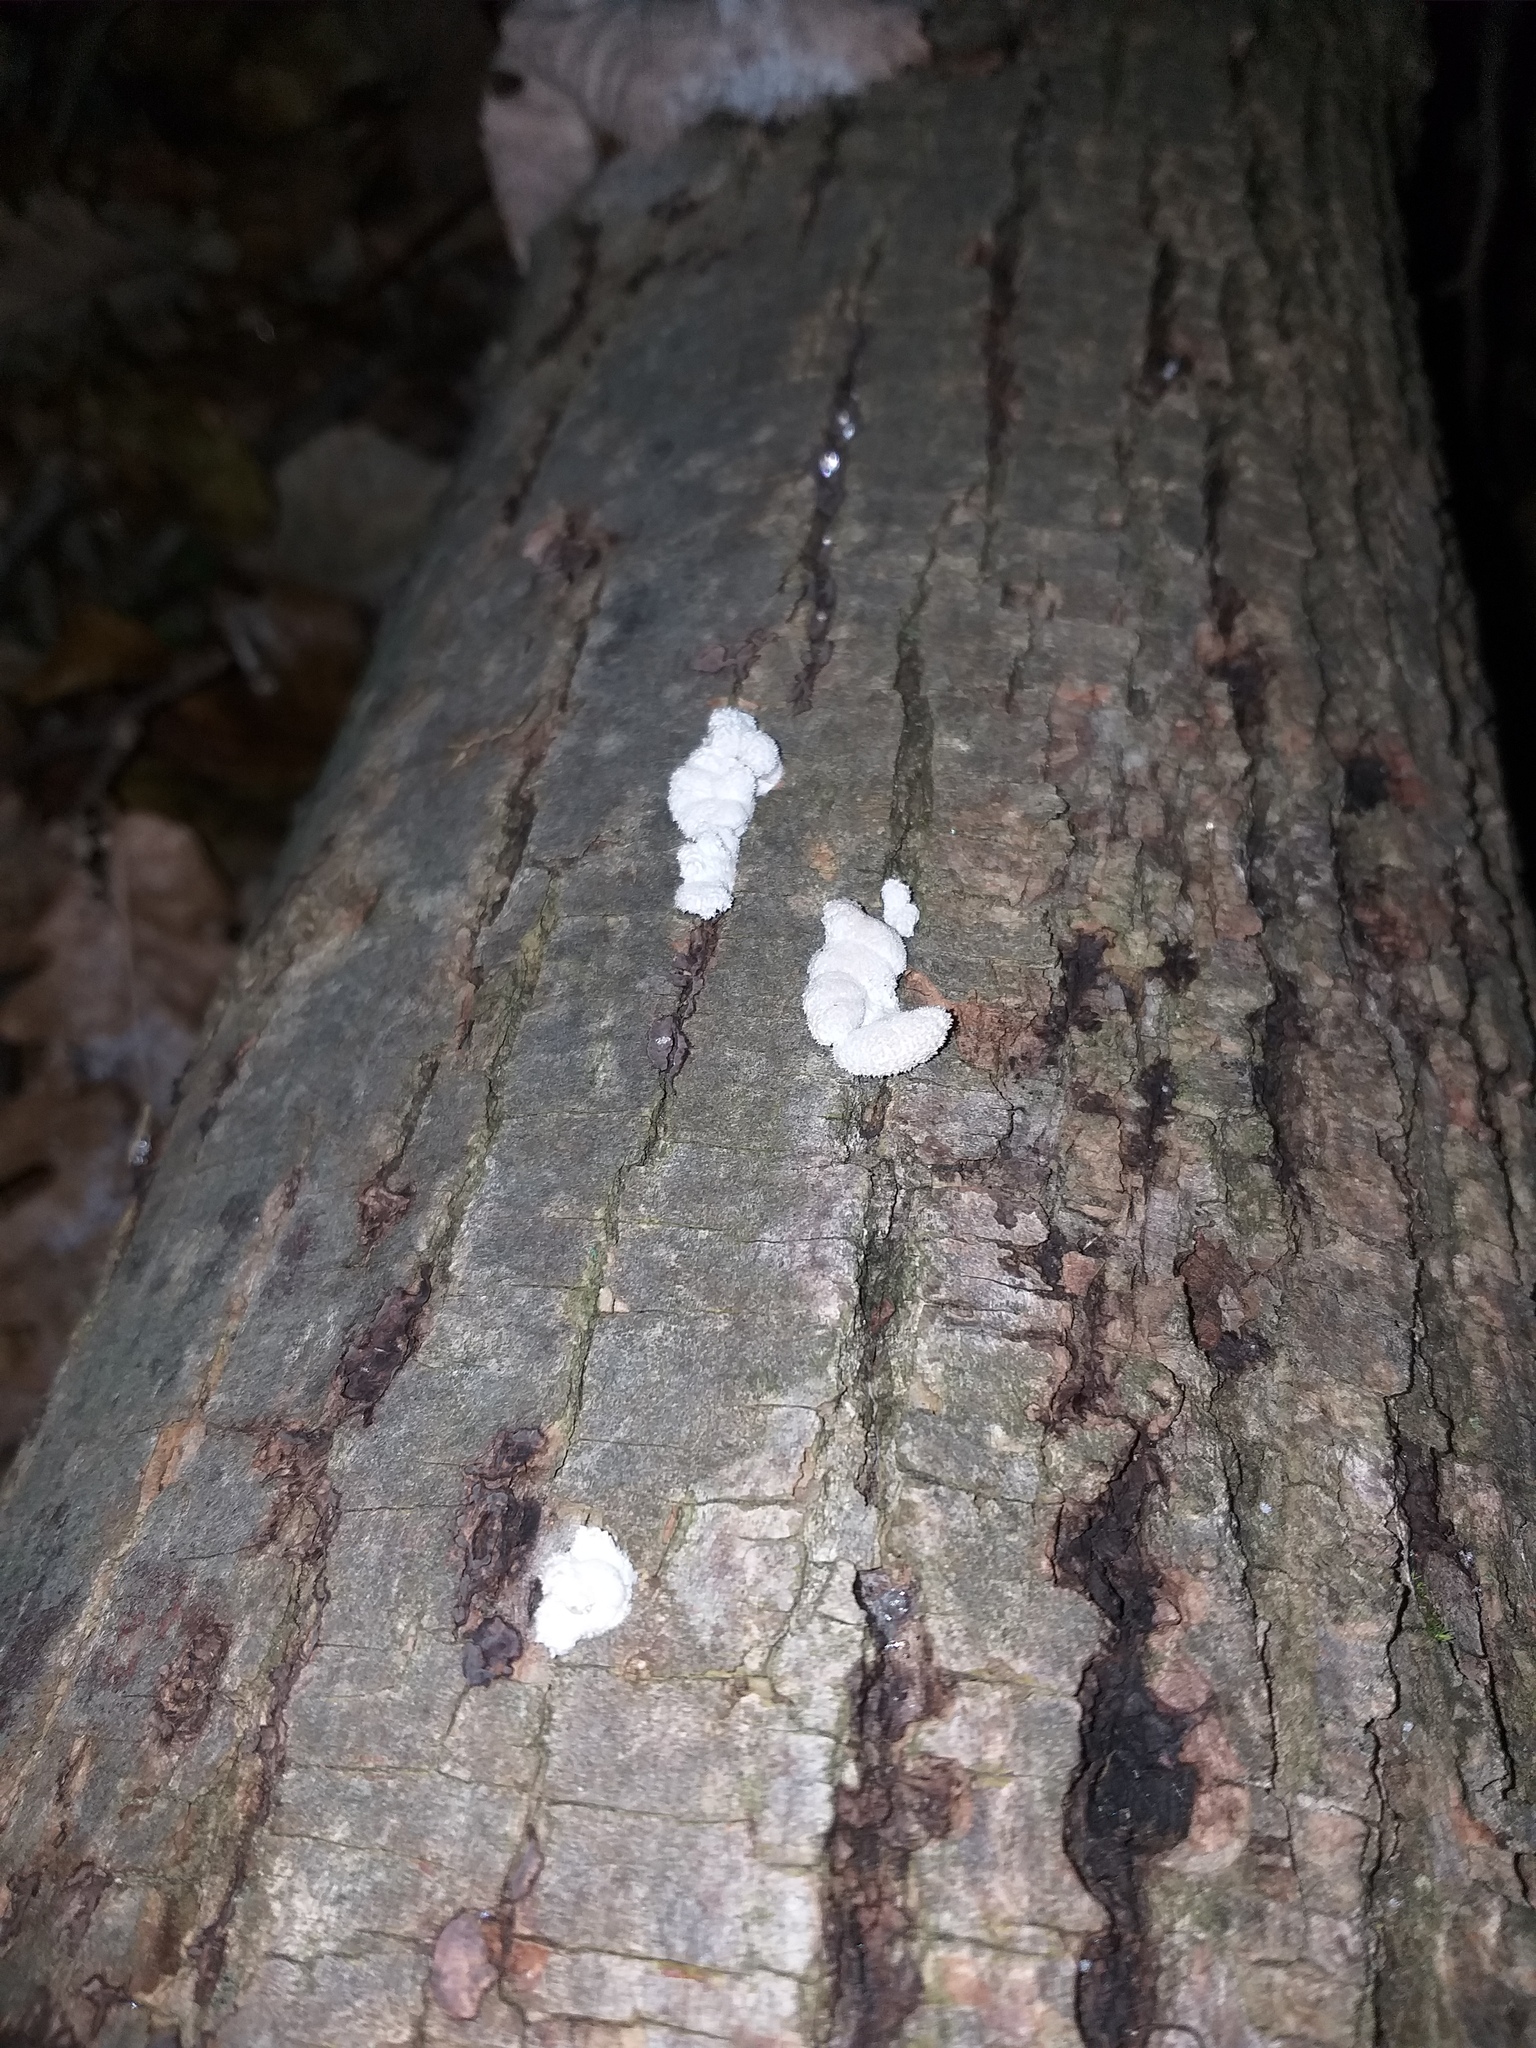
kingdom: Fungi
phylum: Basidiomycota
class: Agaricomycetes
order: Agaricales
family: Schizophyllaceae
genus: Schizophyllum
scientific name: Schizophyllum commune
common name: Common porecrust
